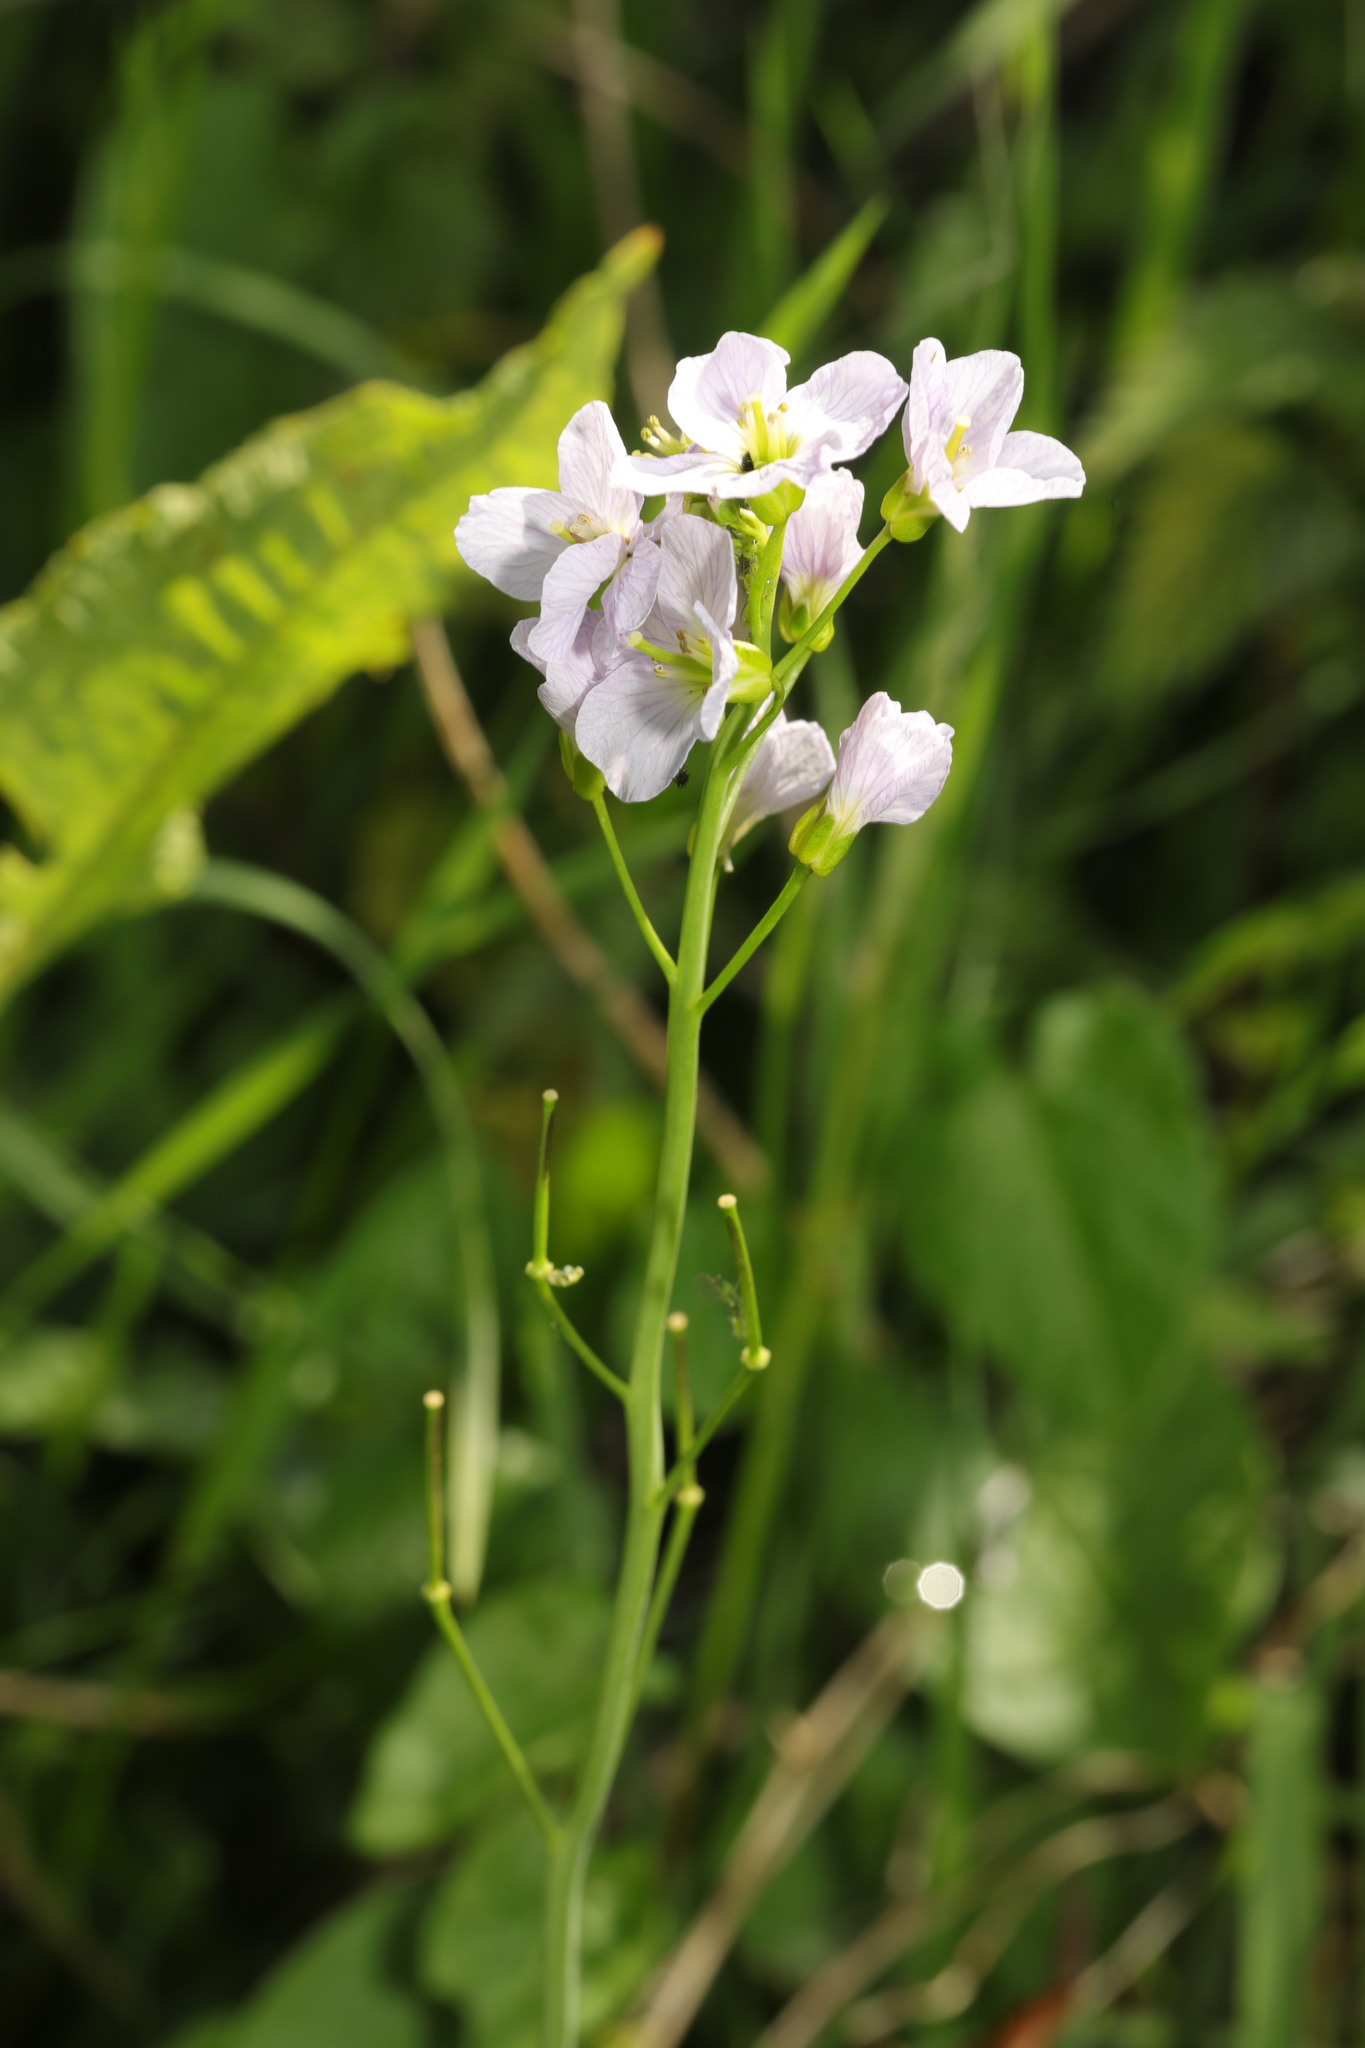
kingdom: Plantae
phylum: Tracheophyta
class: Magnoliopsida
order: Brassicales
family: Brassicaceae
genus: Cardamine
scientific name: Cardamine pratensis
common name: Cuckoo flower
